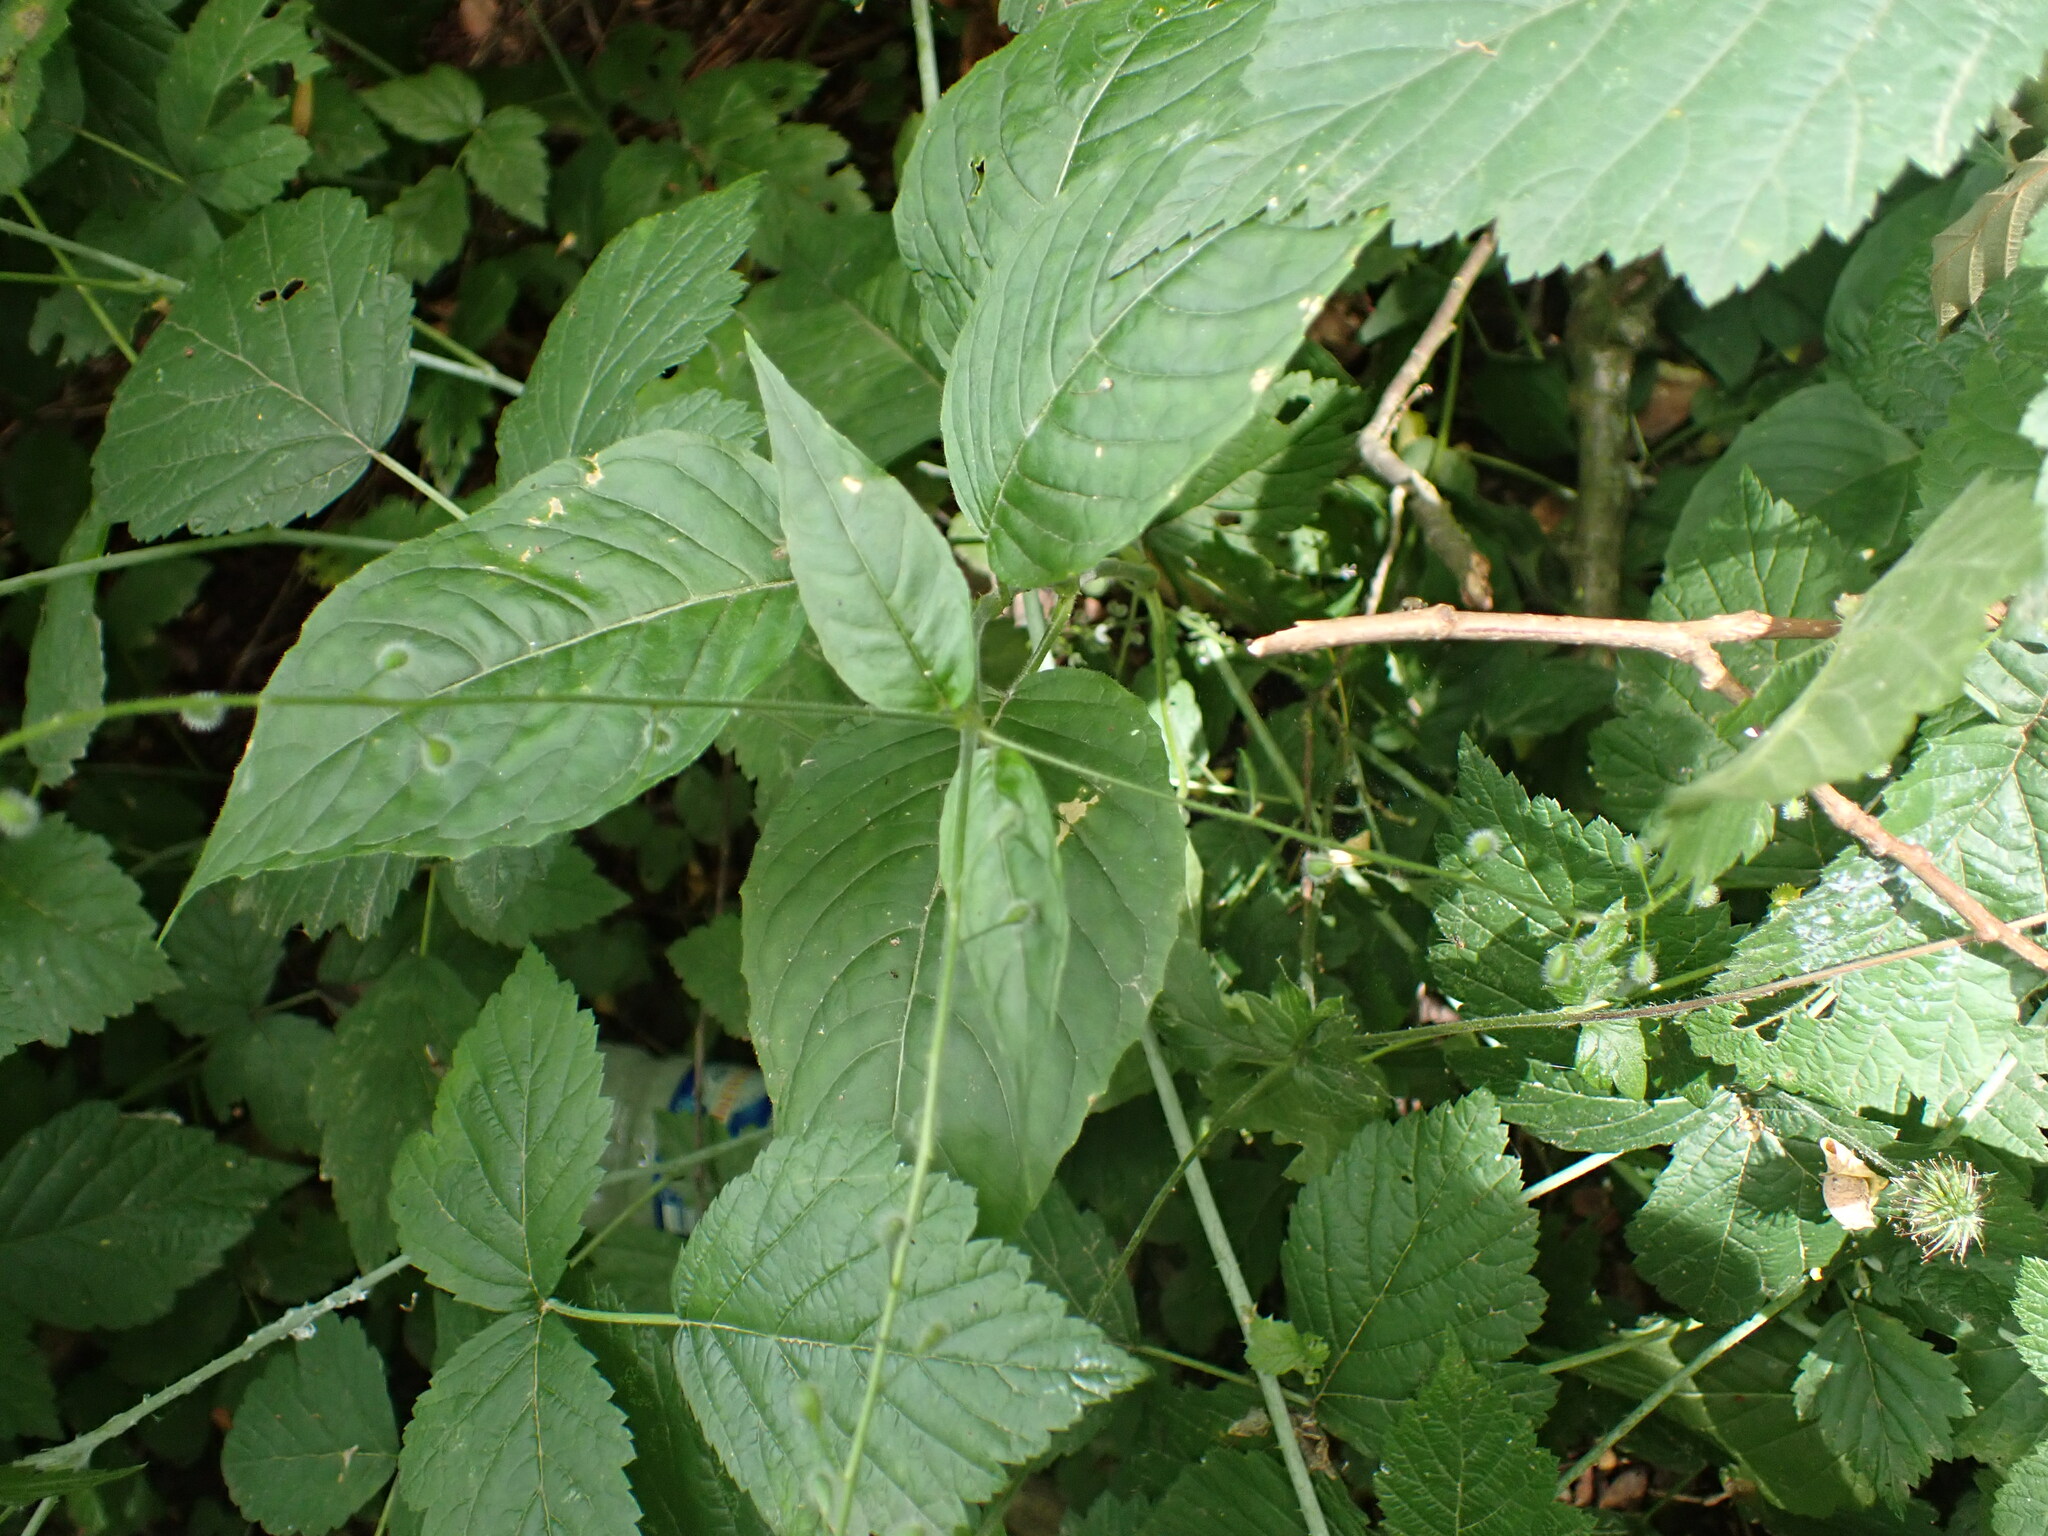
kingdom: Plantae
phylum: Tracheophyta
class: Magnoliopsida
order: Myrtales
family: Onagraceae
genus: Circaea
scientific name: Circaea lutetiana
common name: Enchanter's-nightshade
